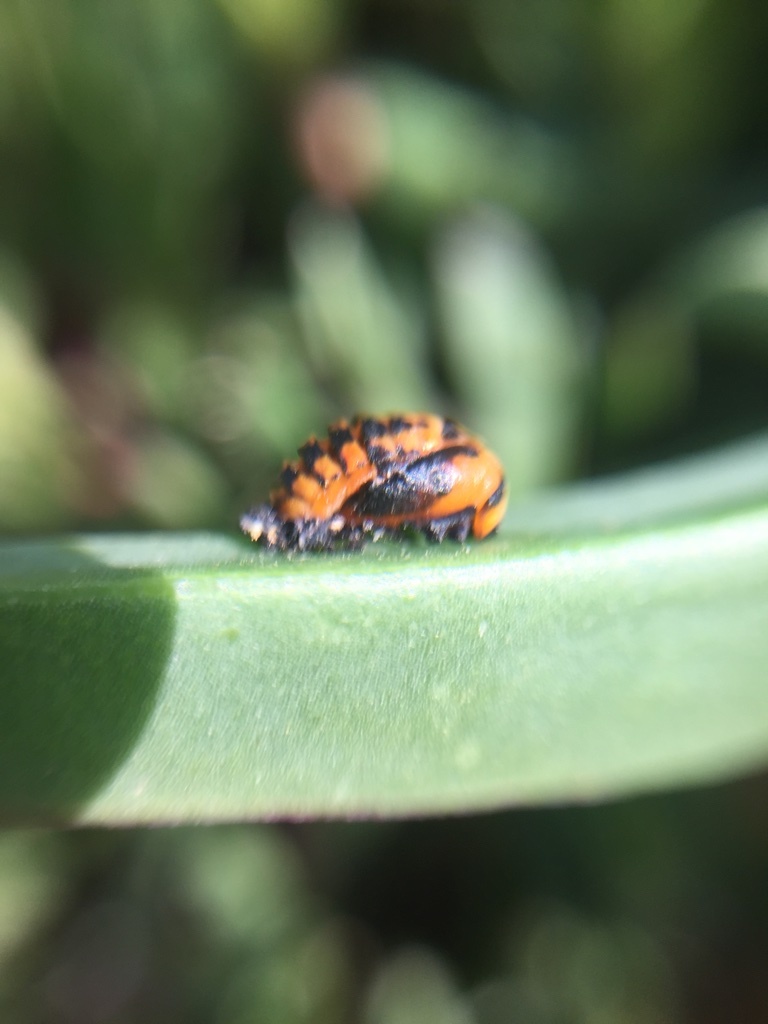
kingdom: Animalia
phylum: Arthropoda
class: Insecta
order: Coleoptera
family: Coccinellidae
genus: Harmonia
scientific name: Harmonia axyridis
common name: Harlequin ladybird
